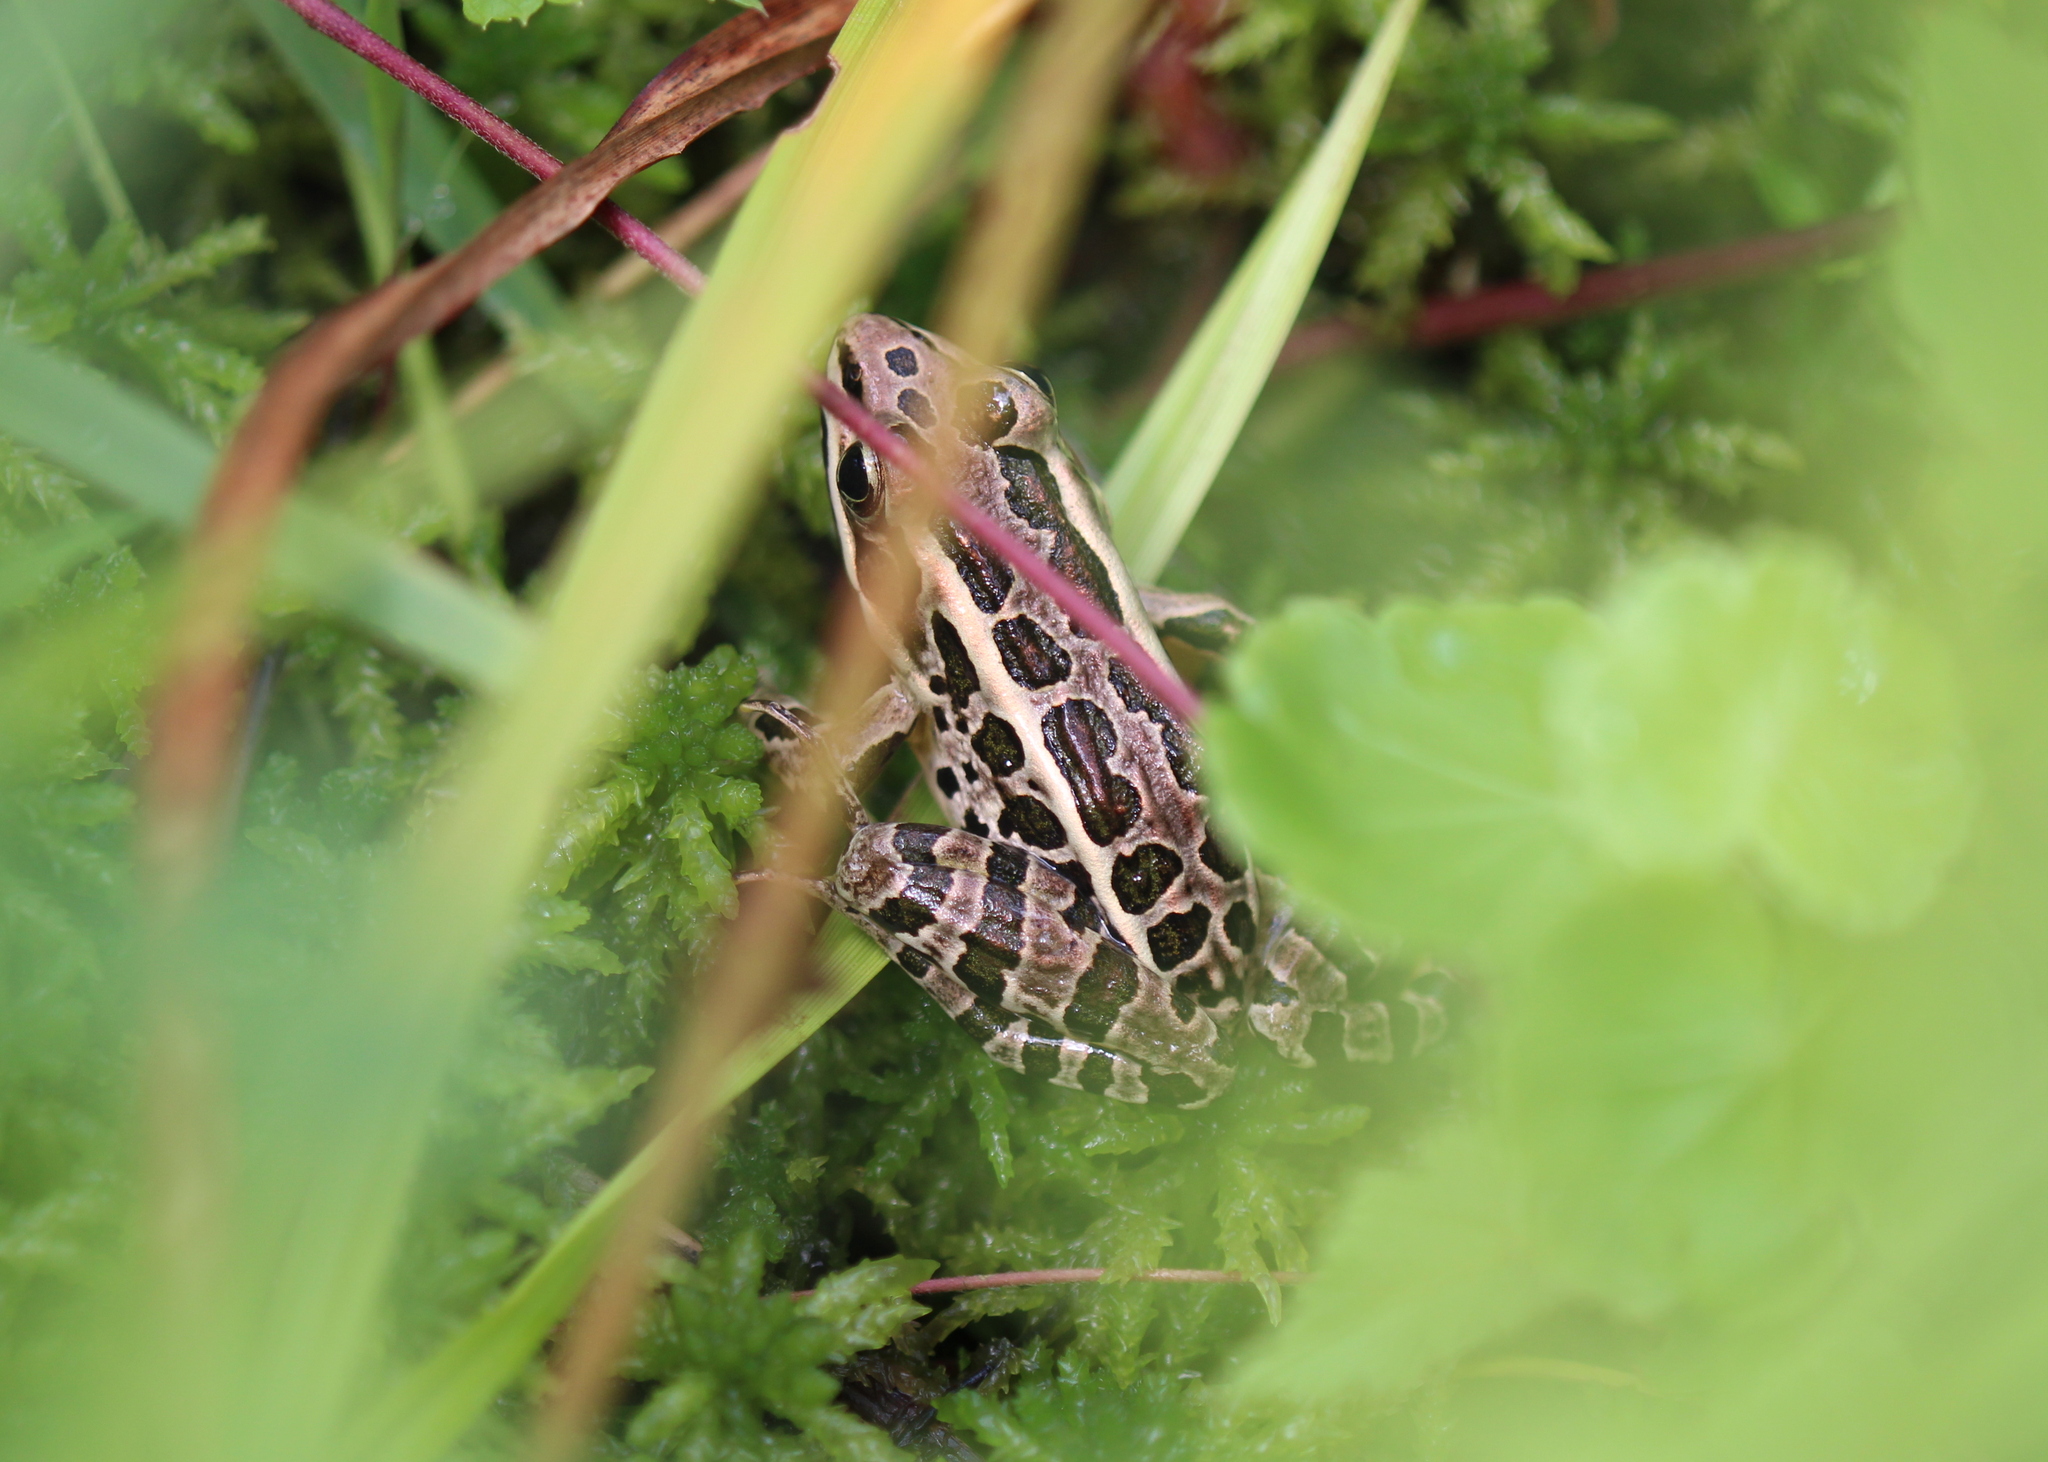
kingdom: Animalia
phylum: Chordata
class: Amphibia
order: Anura
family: Ranidae
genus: Lithobates
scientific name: Lithobates palustris
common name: Pickerel frog
